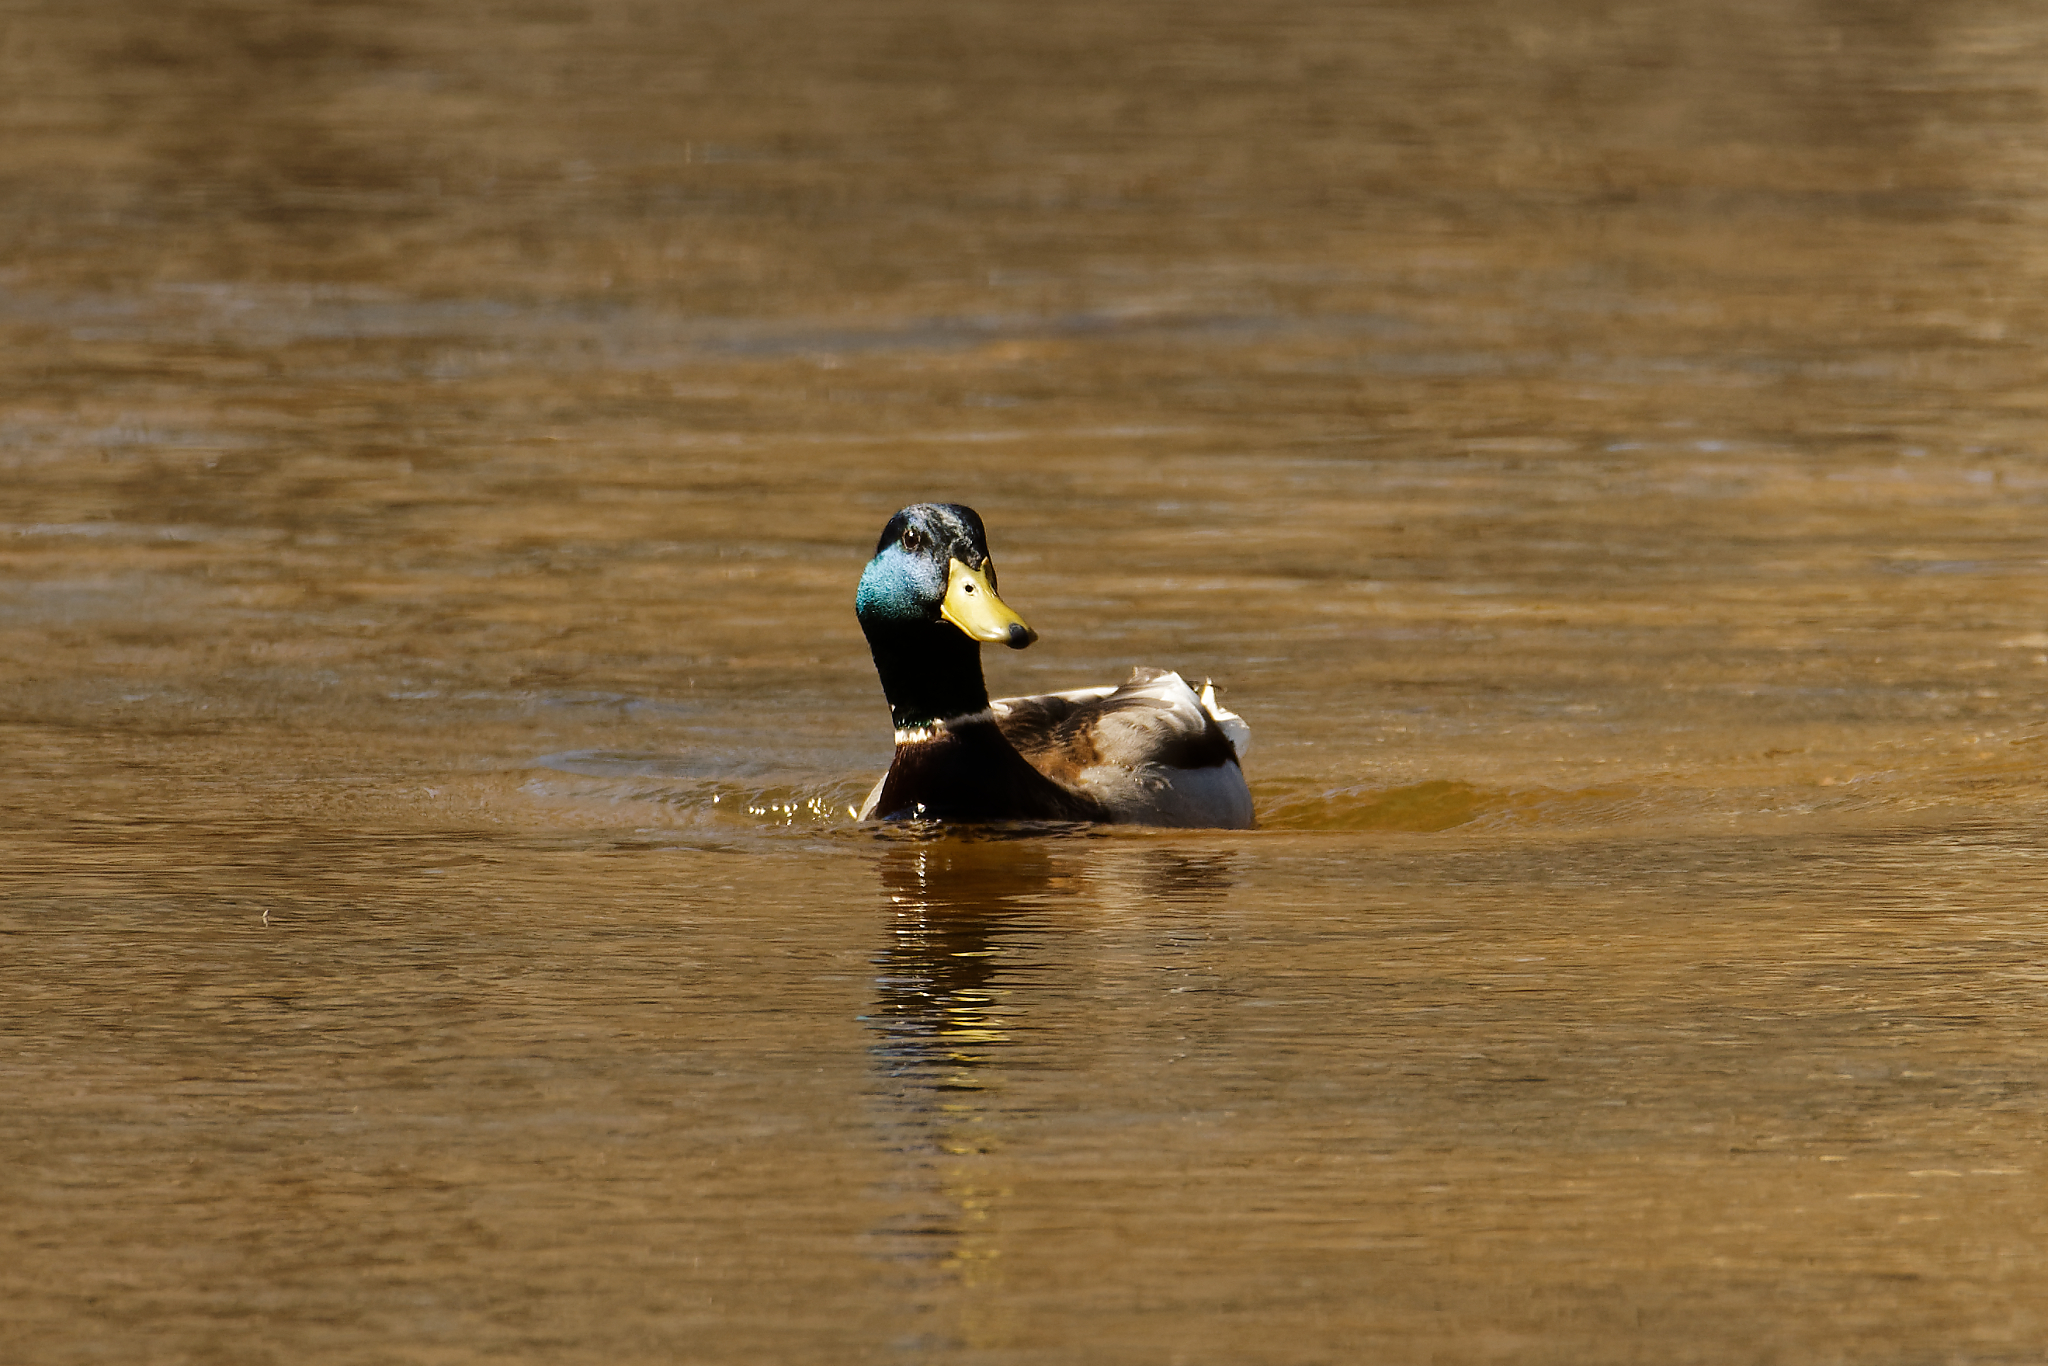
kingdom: Animalia
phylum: Chordata
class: Aves
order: Anseriformes
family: Anatidae
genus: Anas
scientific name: Anas platyrhynchos
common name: Mallard
